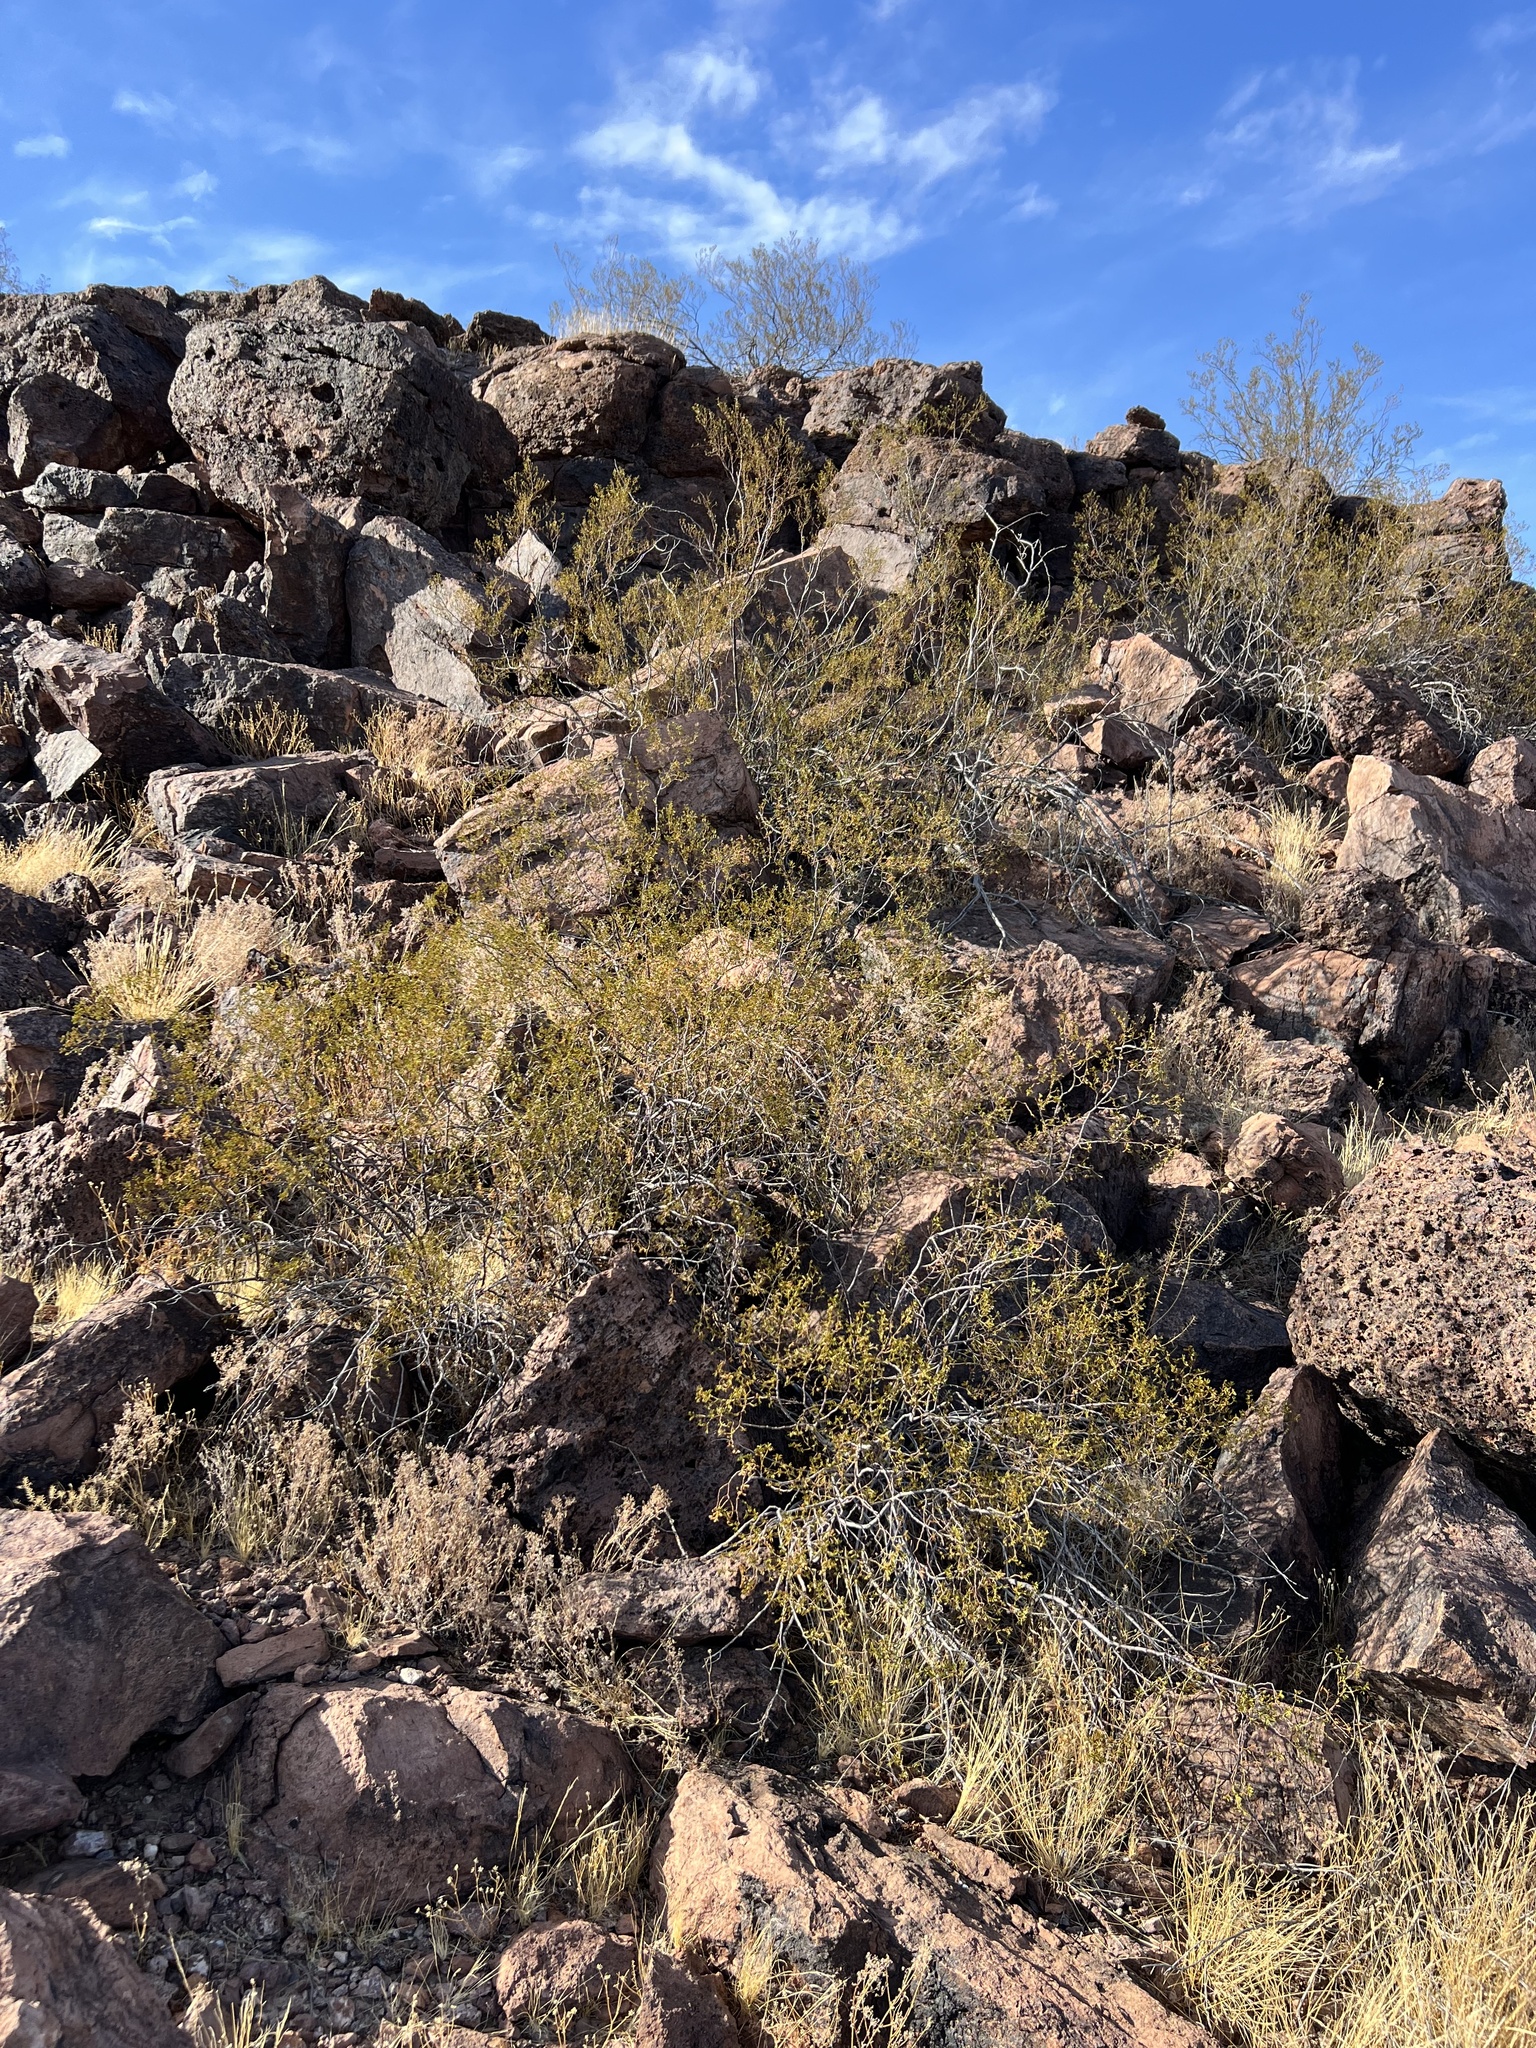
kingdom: Plantae
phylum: Tracheophyta
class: Magnoliopsida
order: Zygophyllales
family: Zygophyllaceae
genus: Larrea
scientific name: Larrea tridentata
